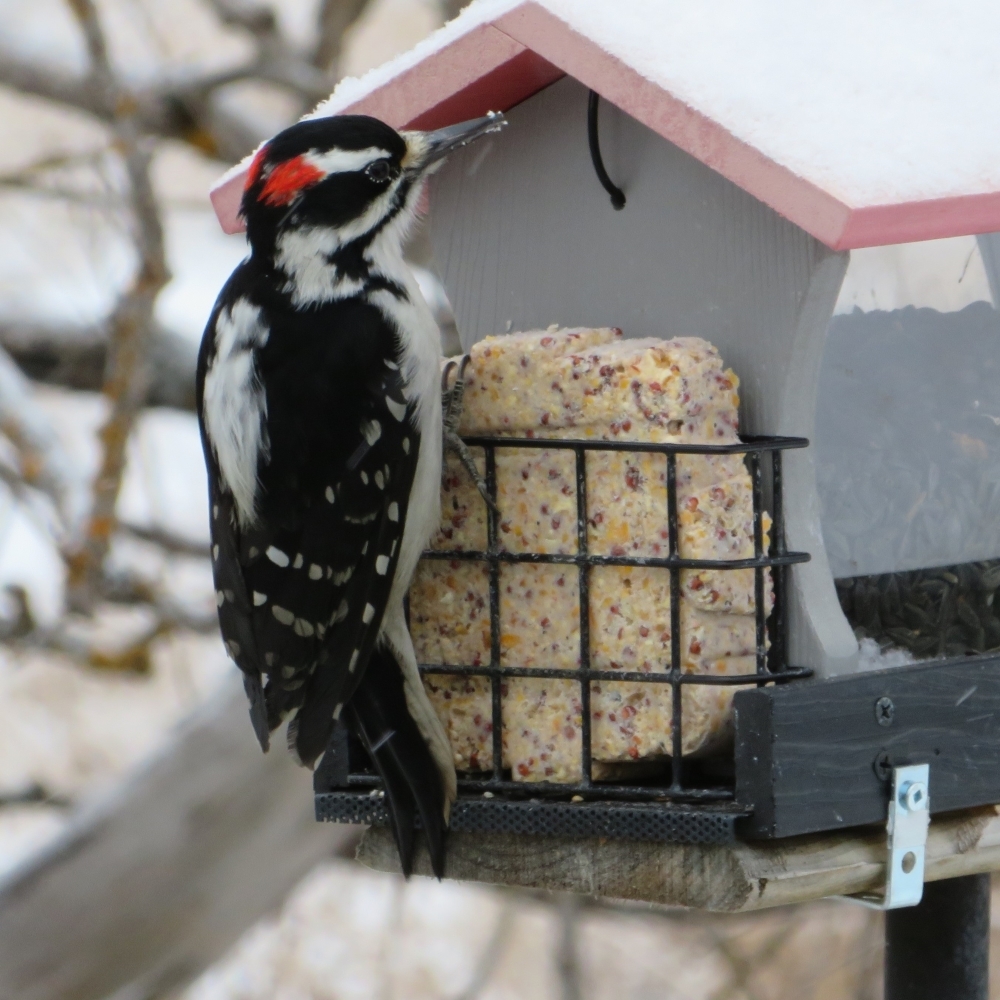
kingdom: Animalia
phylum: Chordata
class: Aves
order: Piciformes
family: Picidae
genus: Leuconotopicus
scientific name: Leuconotopicus villosus
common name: Hairy woodpecker
